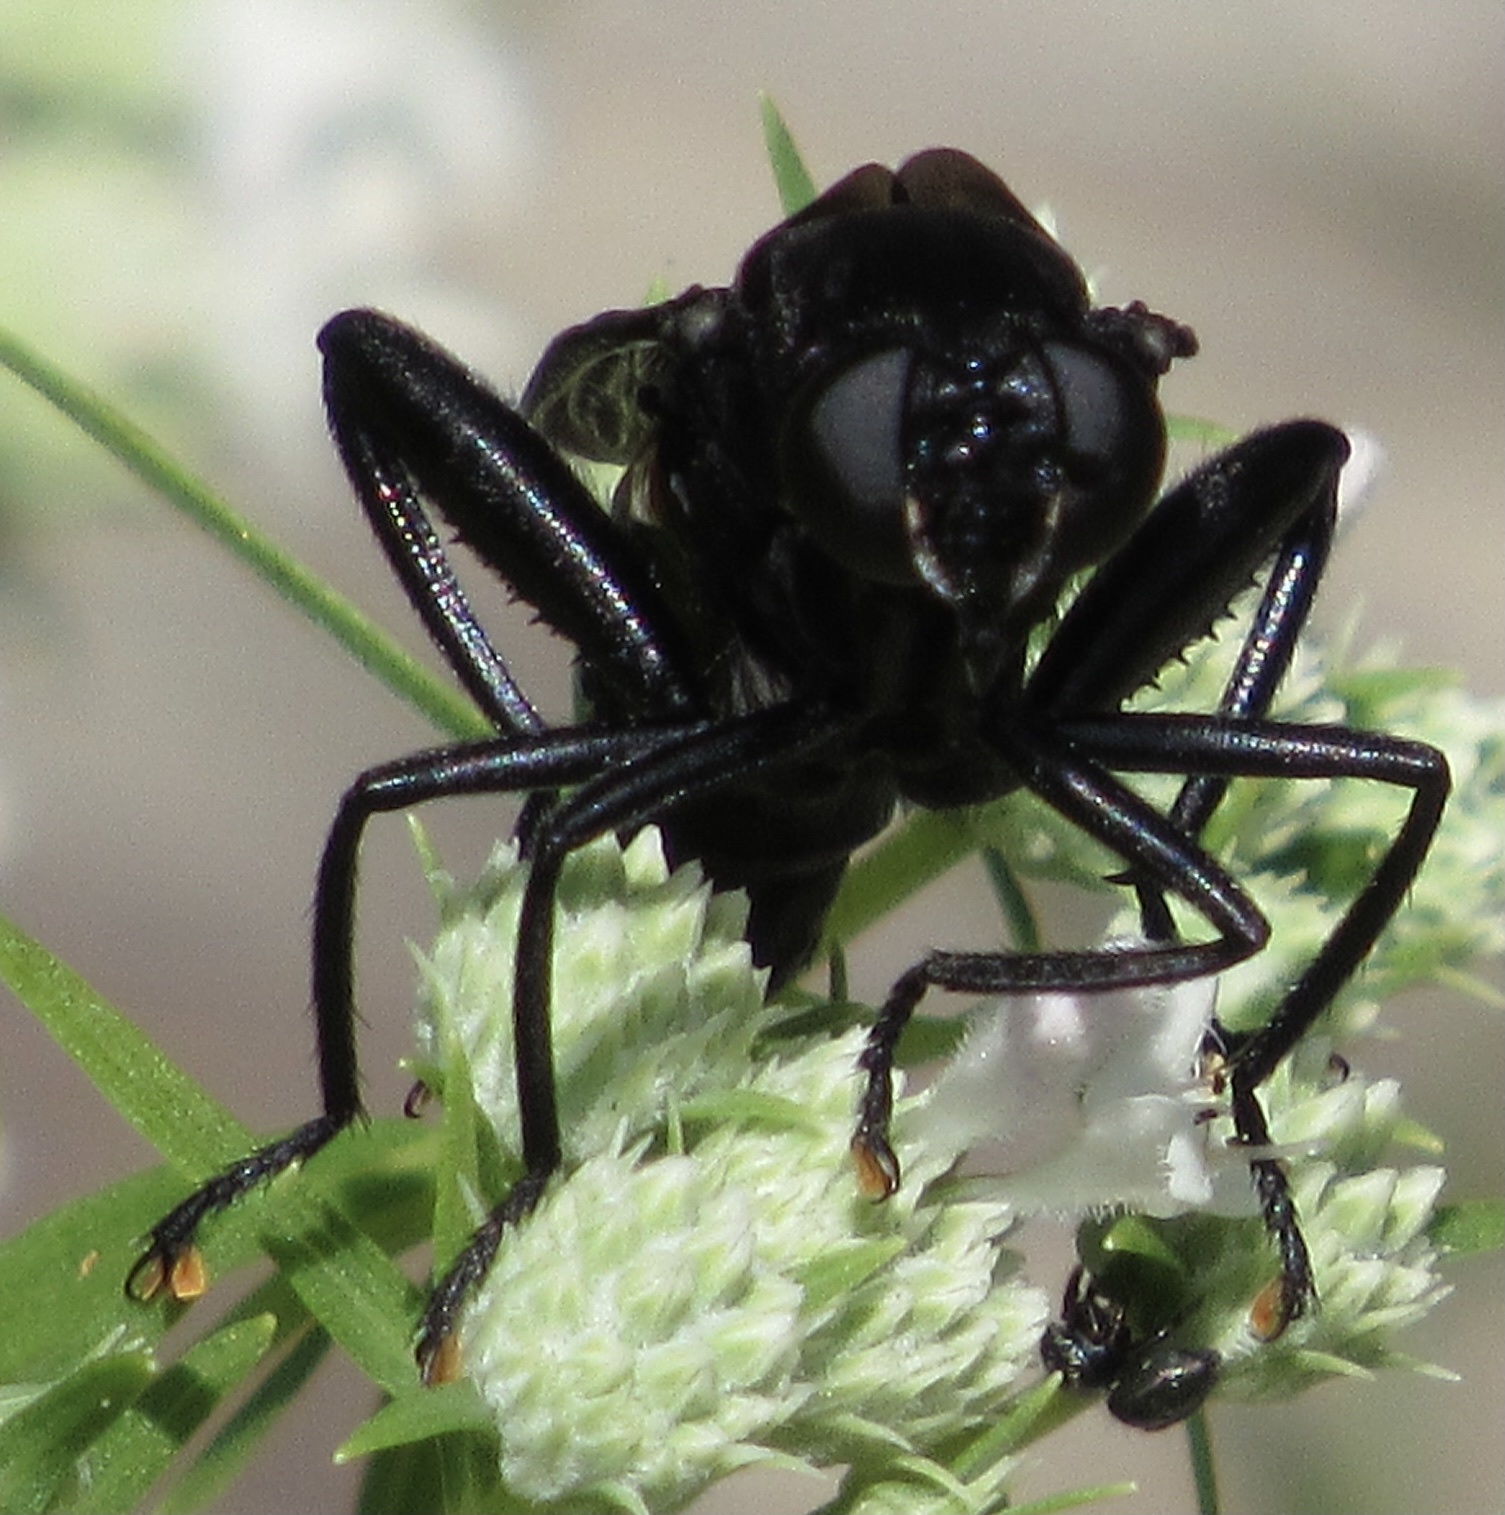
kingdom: Animalia
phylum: Arthropoda
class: Insecta
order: Diptera
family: Mydidae
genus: Mydas
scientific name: Mydas clavatus
